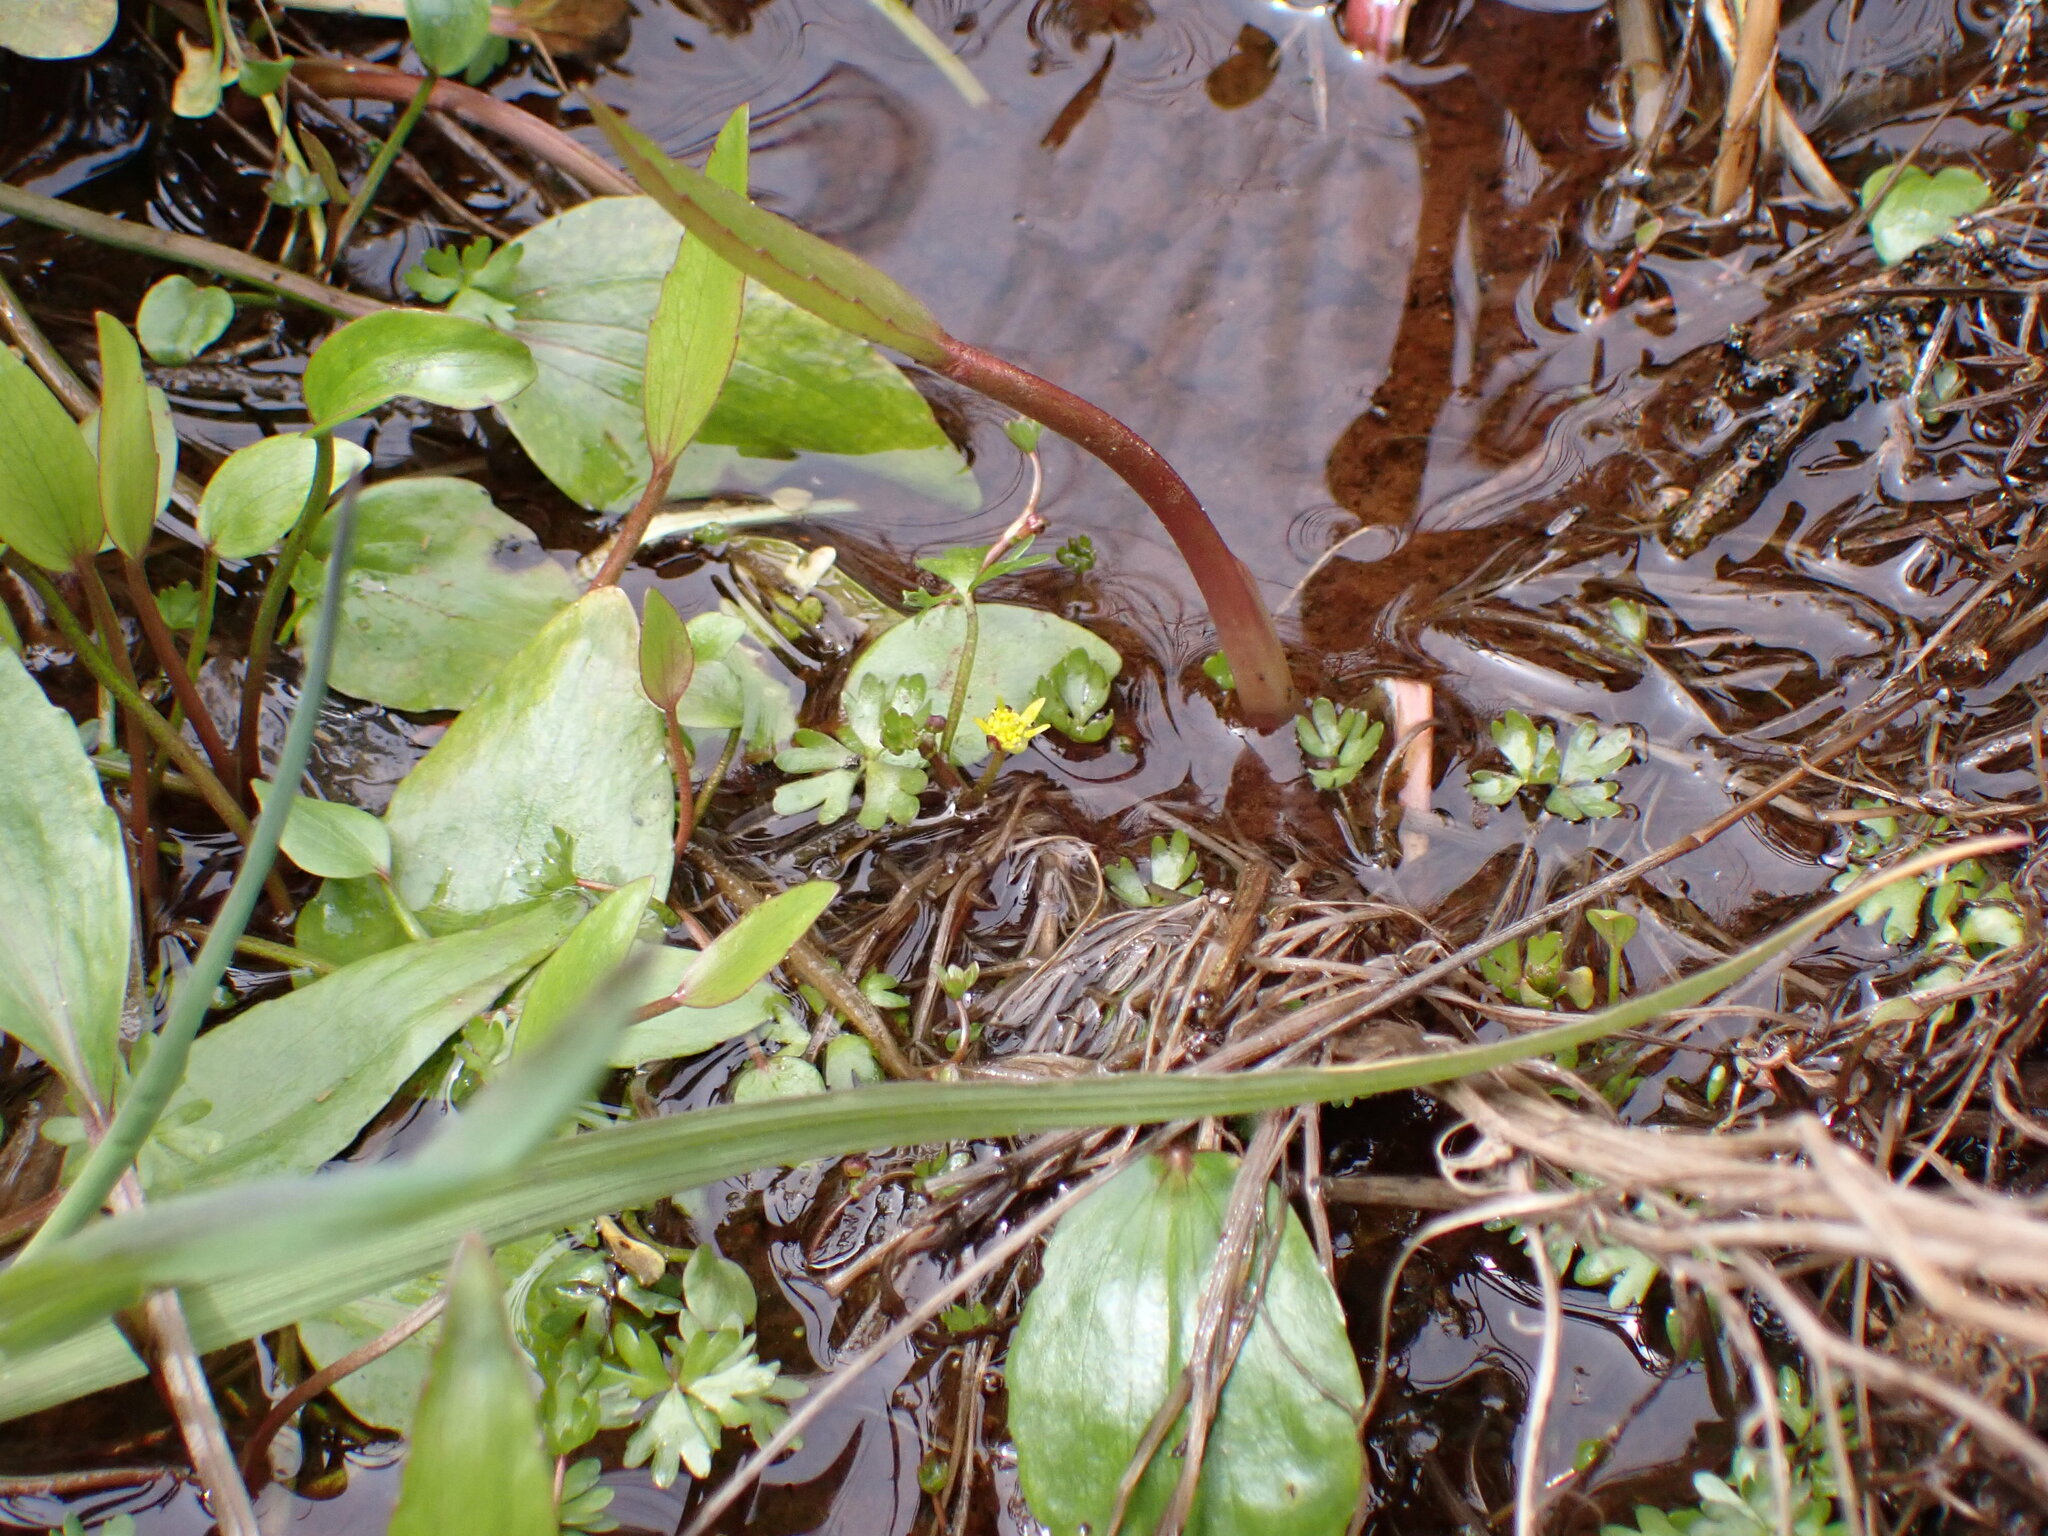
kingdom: Plantae
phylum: Tracheophyta
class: Magnoliopsida
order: Ranunculales
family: Ranunculaceae
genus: Ranunculus
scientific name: Ranunculus glabrifolius
